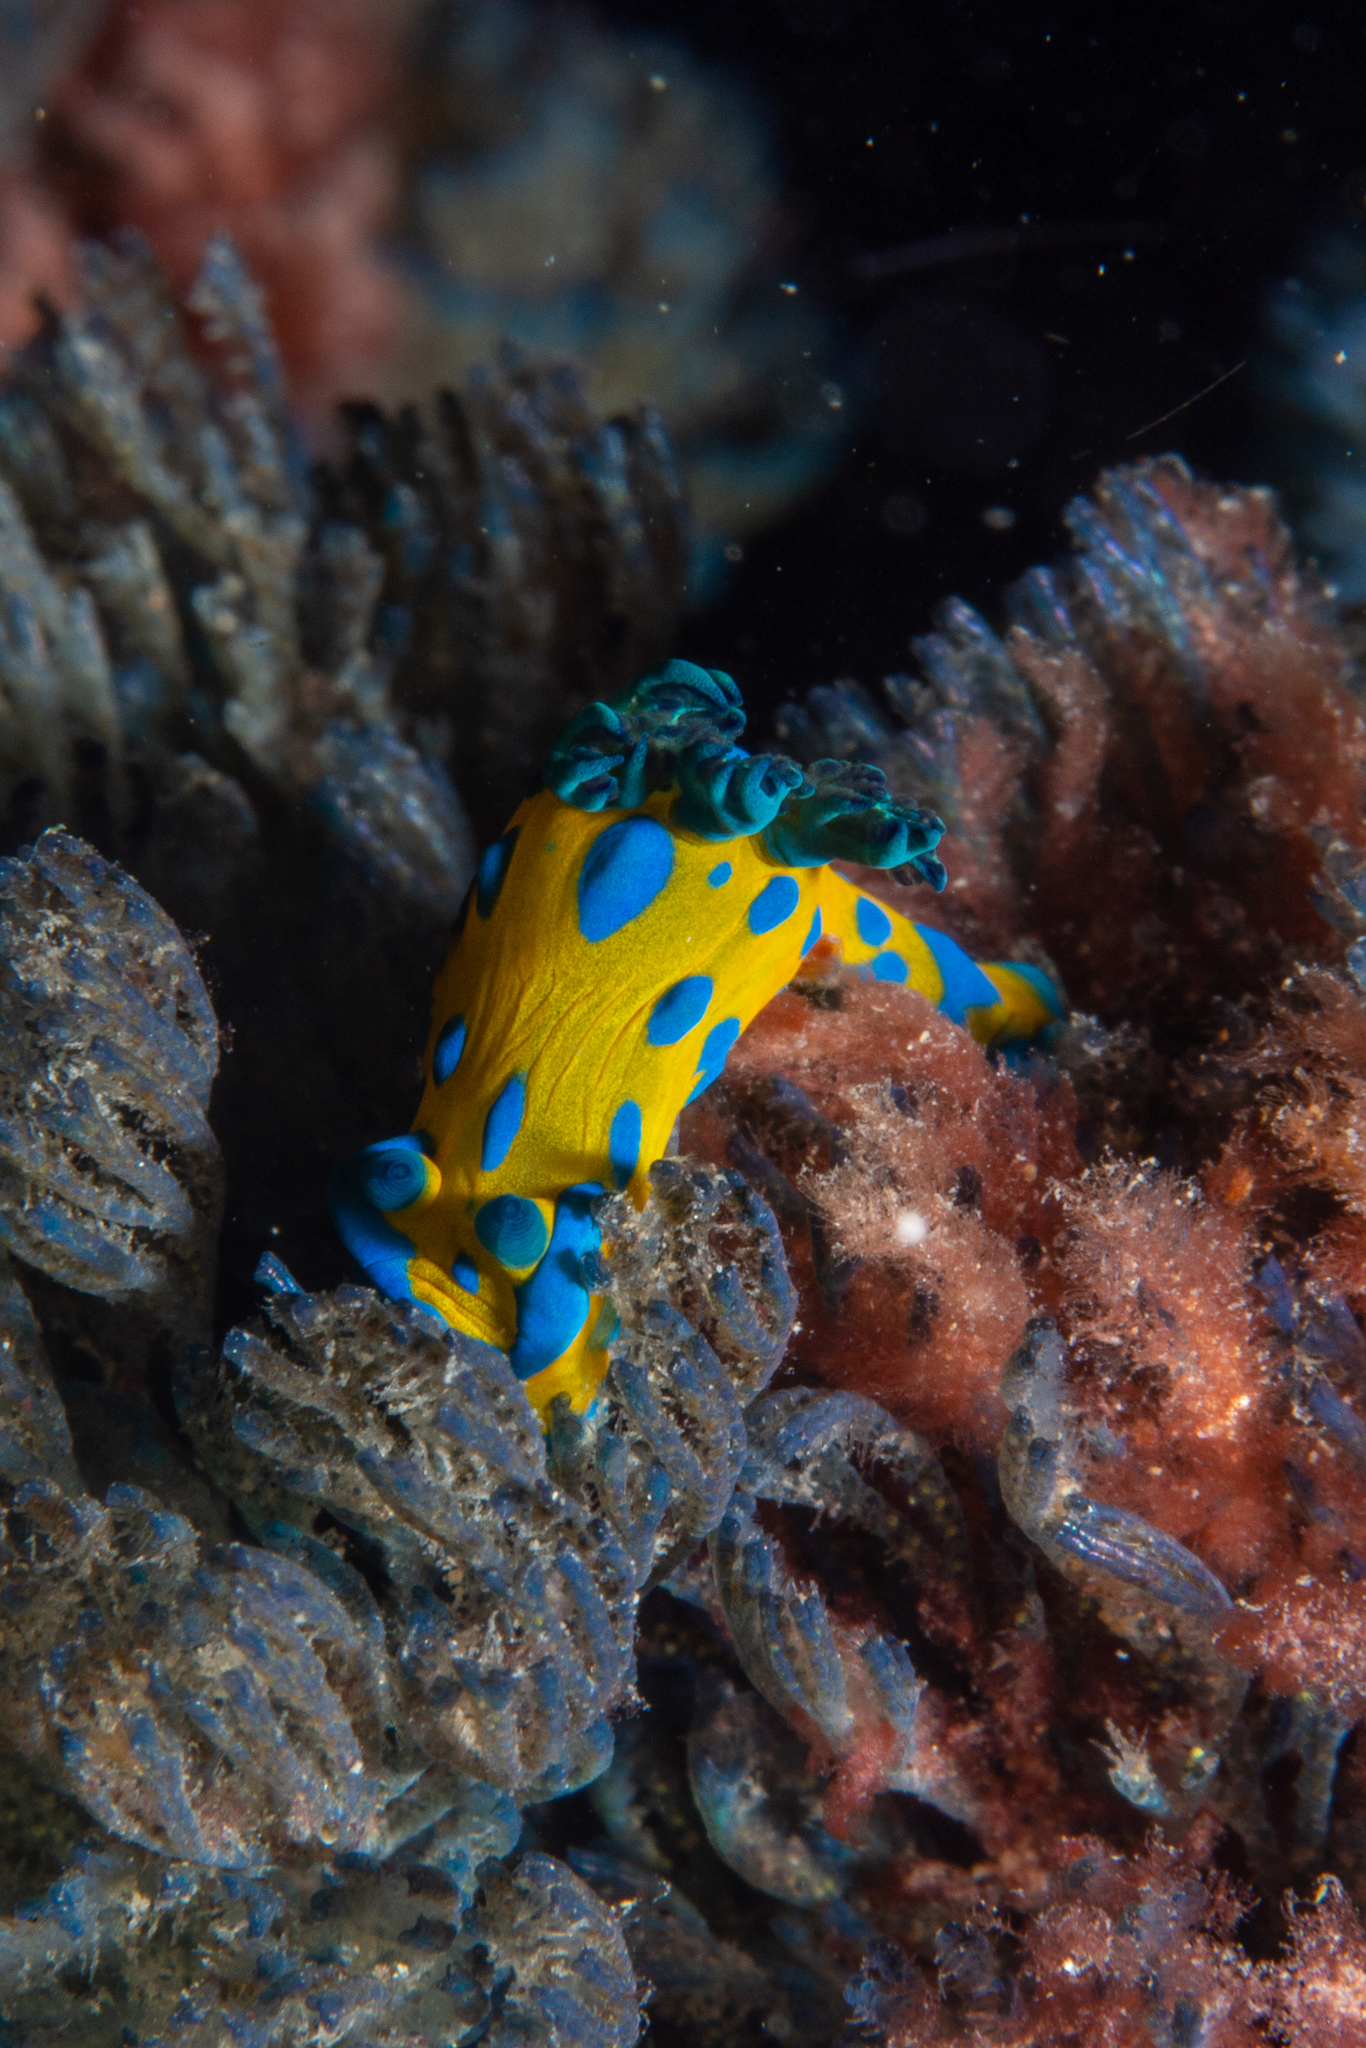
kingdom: Animalia
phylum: Mollusca
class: Gastropoda
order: Nudibranchia
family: Polyceridae
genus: Tambja
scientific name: Tambja verconis
